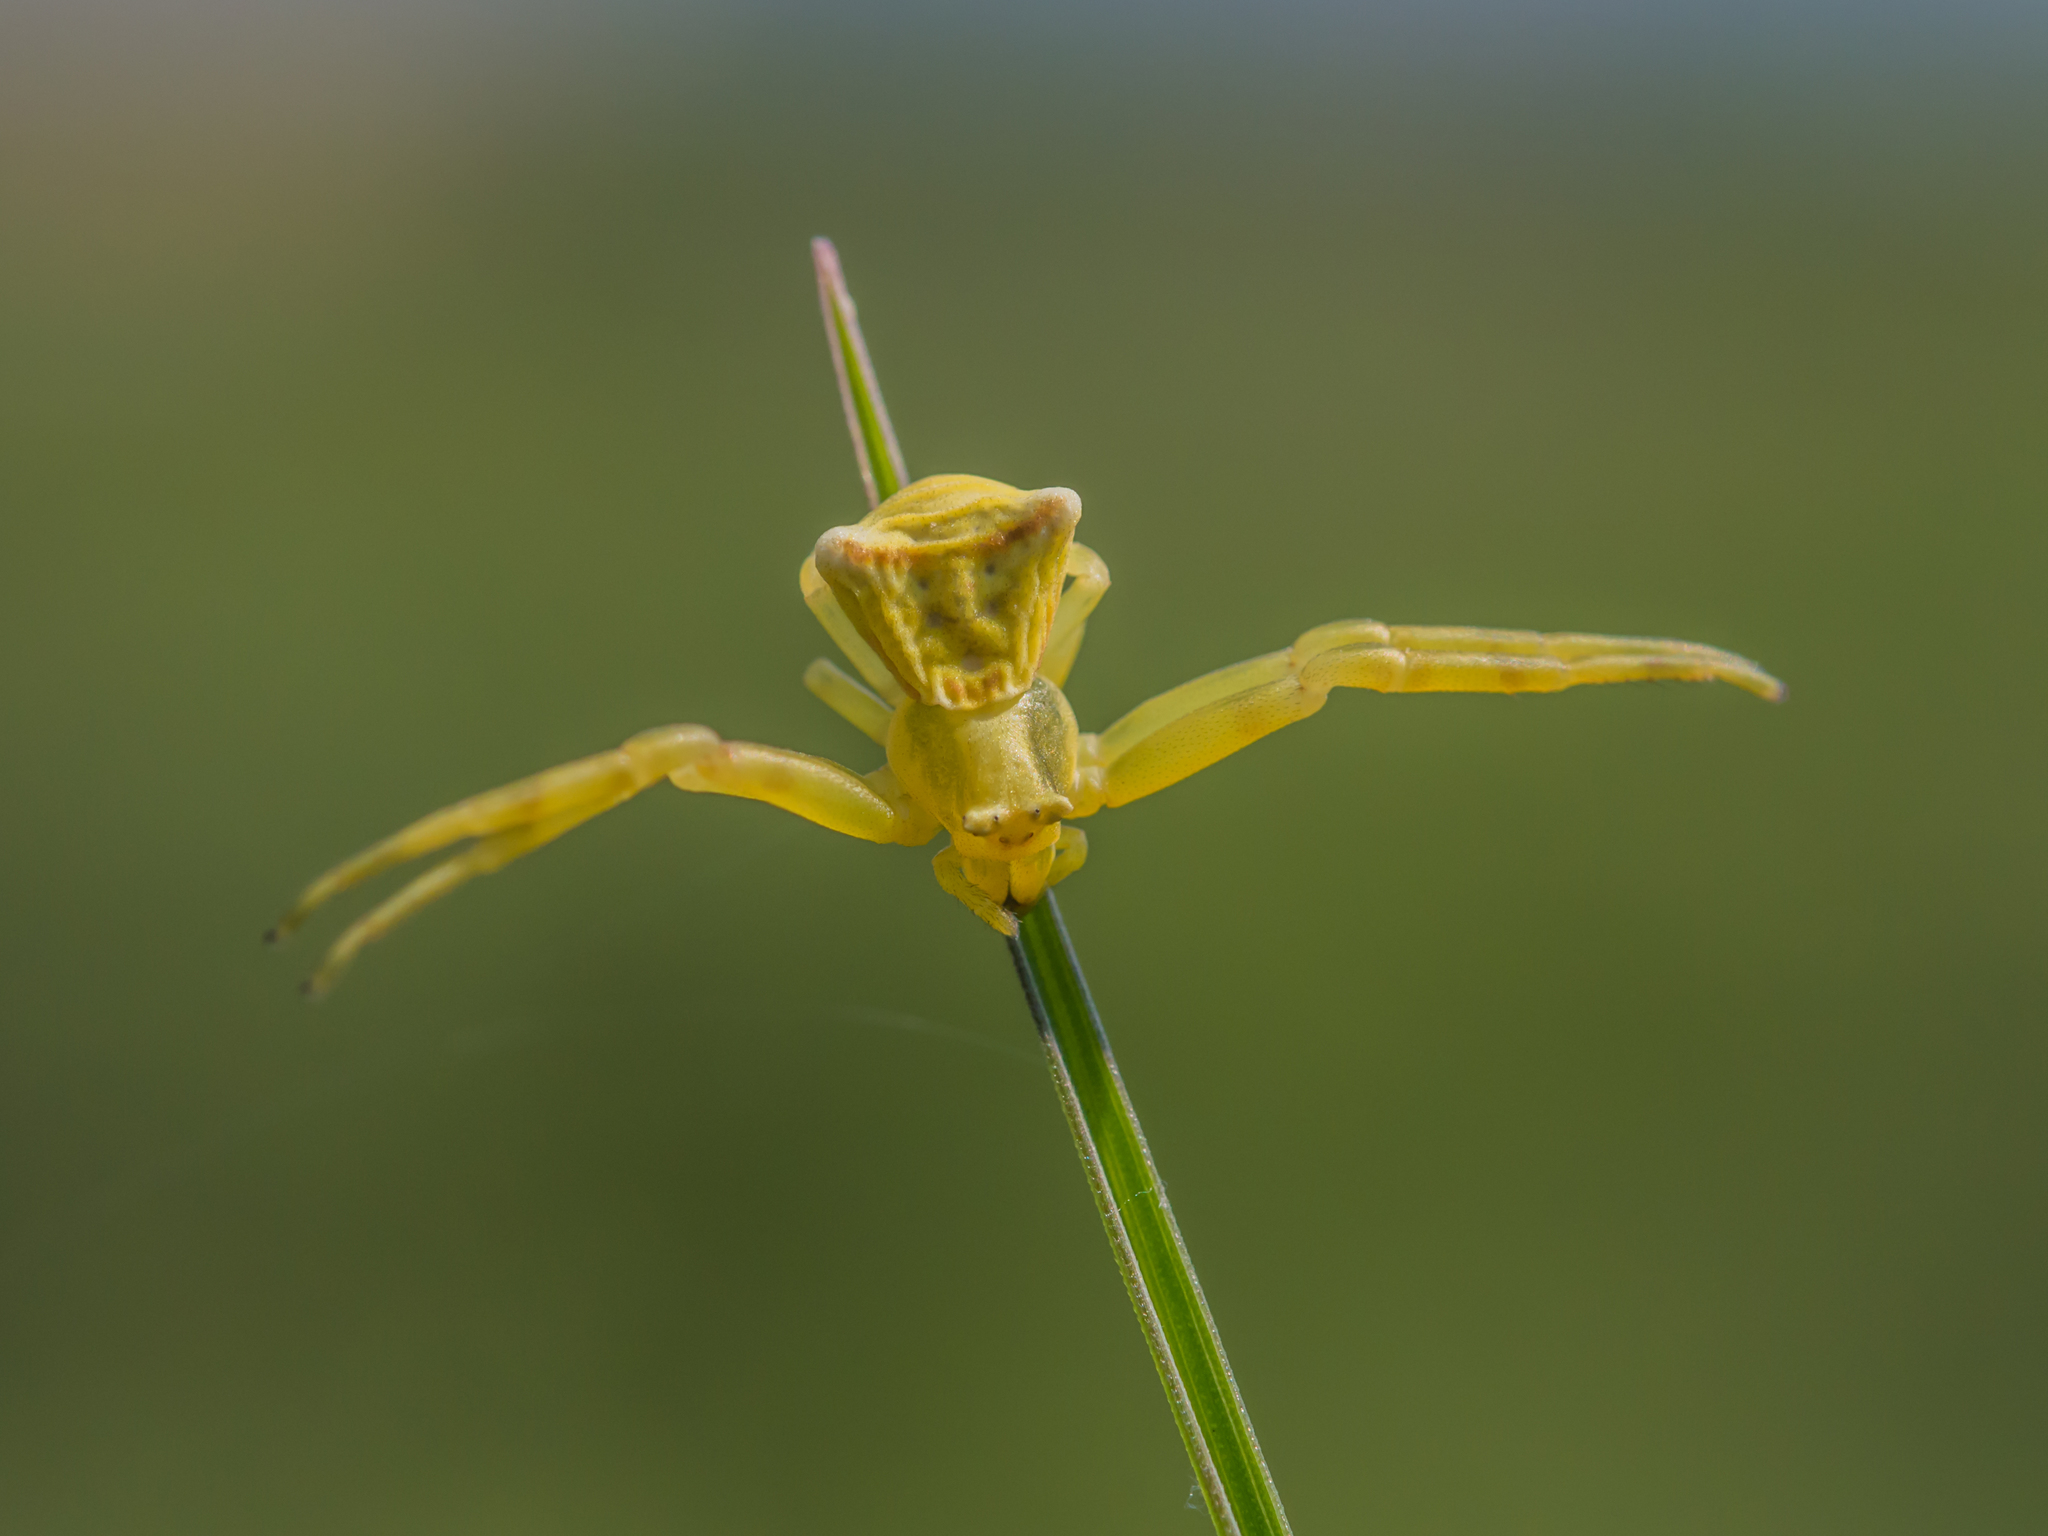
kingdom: Animalia
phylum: Arthropoda
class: Arachnida
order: Araneae
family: Thomisidae
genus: Thomisus
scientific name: Thomisus onustus
